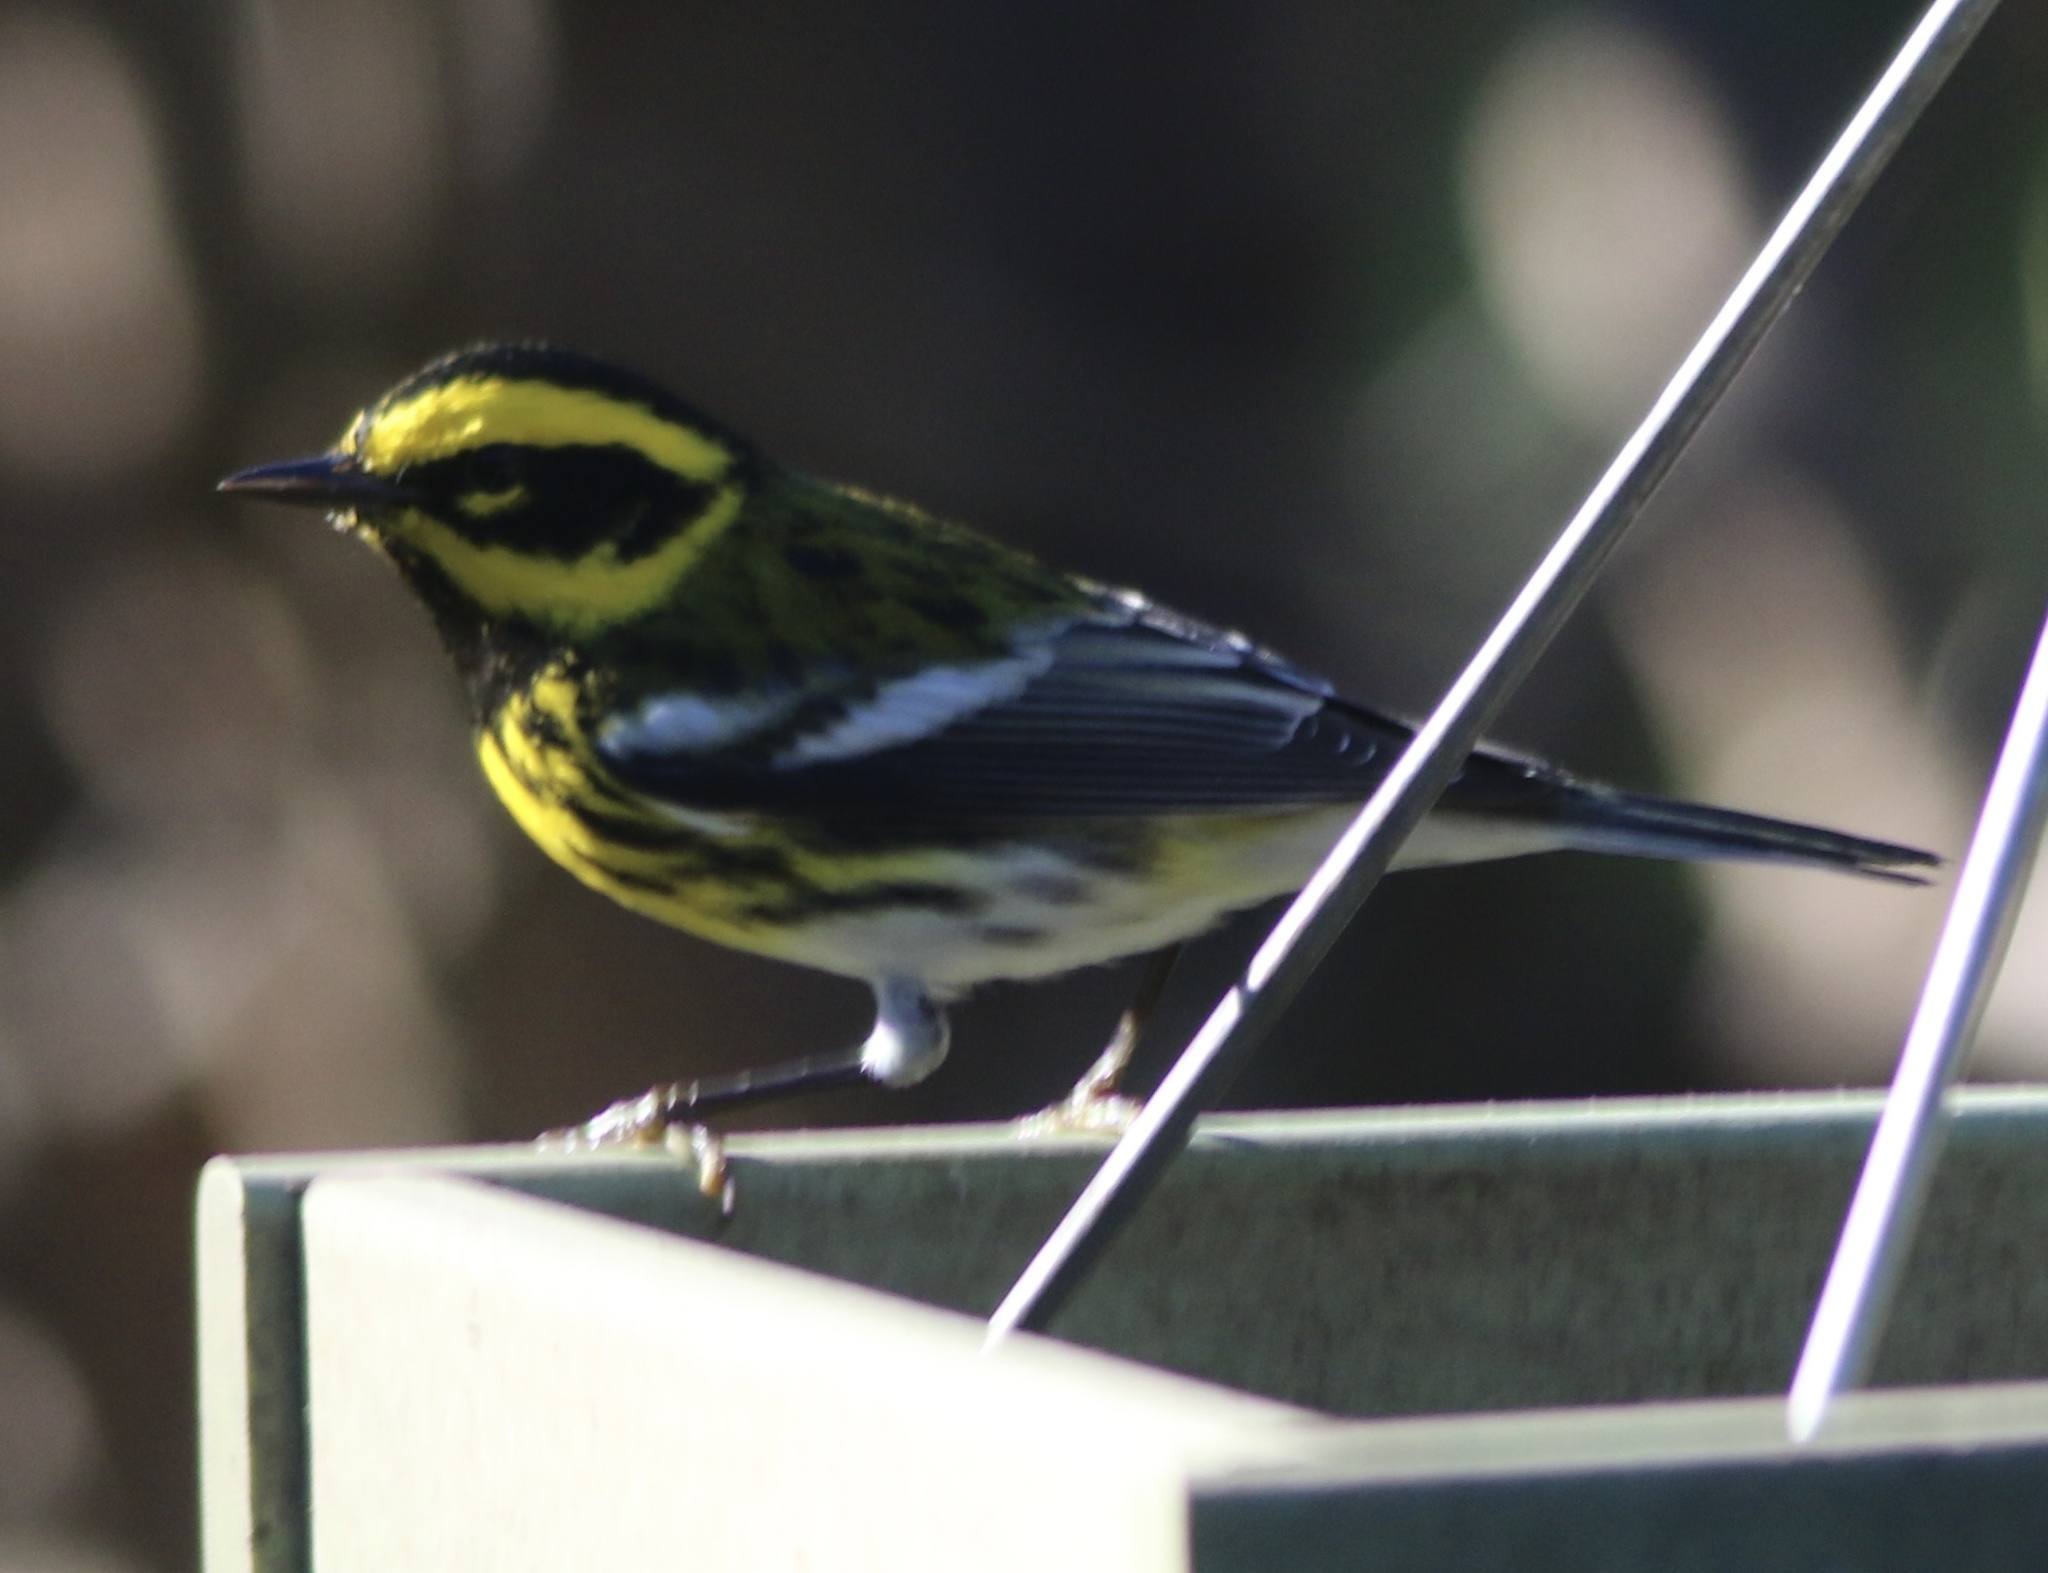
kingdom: Animalia
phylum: Chordata
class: Aves
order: Passeriformes
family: Parulidae
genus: Setophaga
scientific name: Setophaga townsendi
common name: Townsend's warbler
